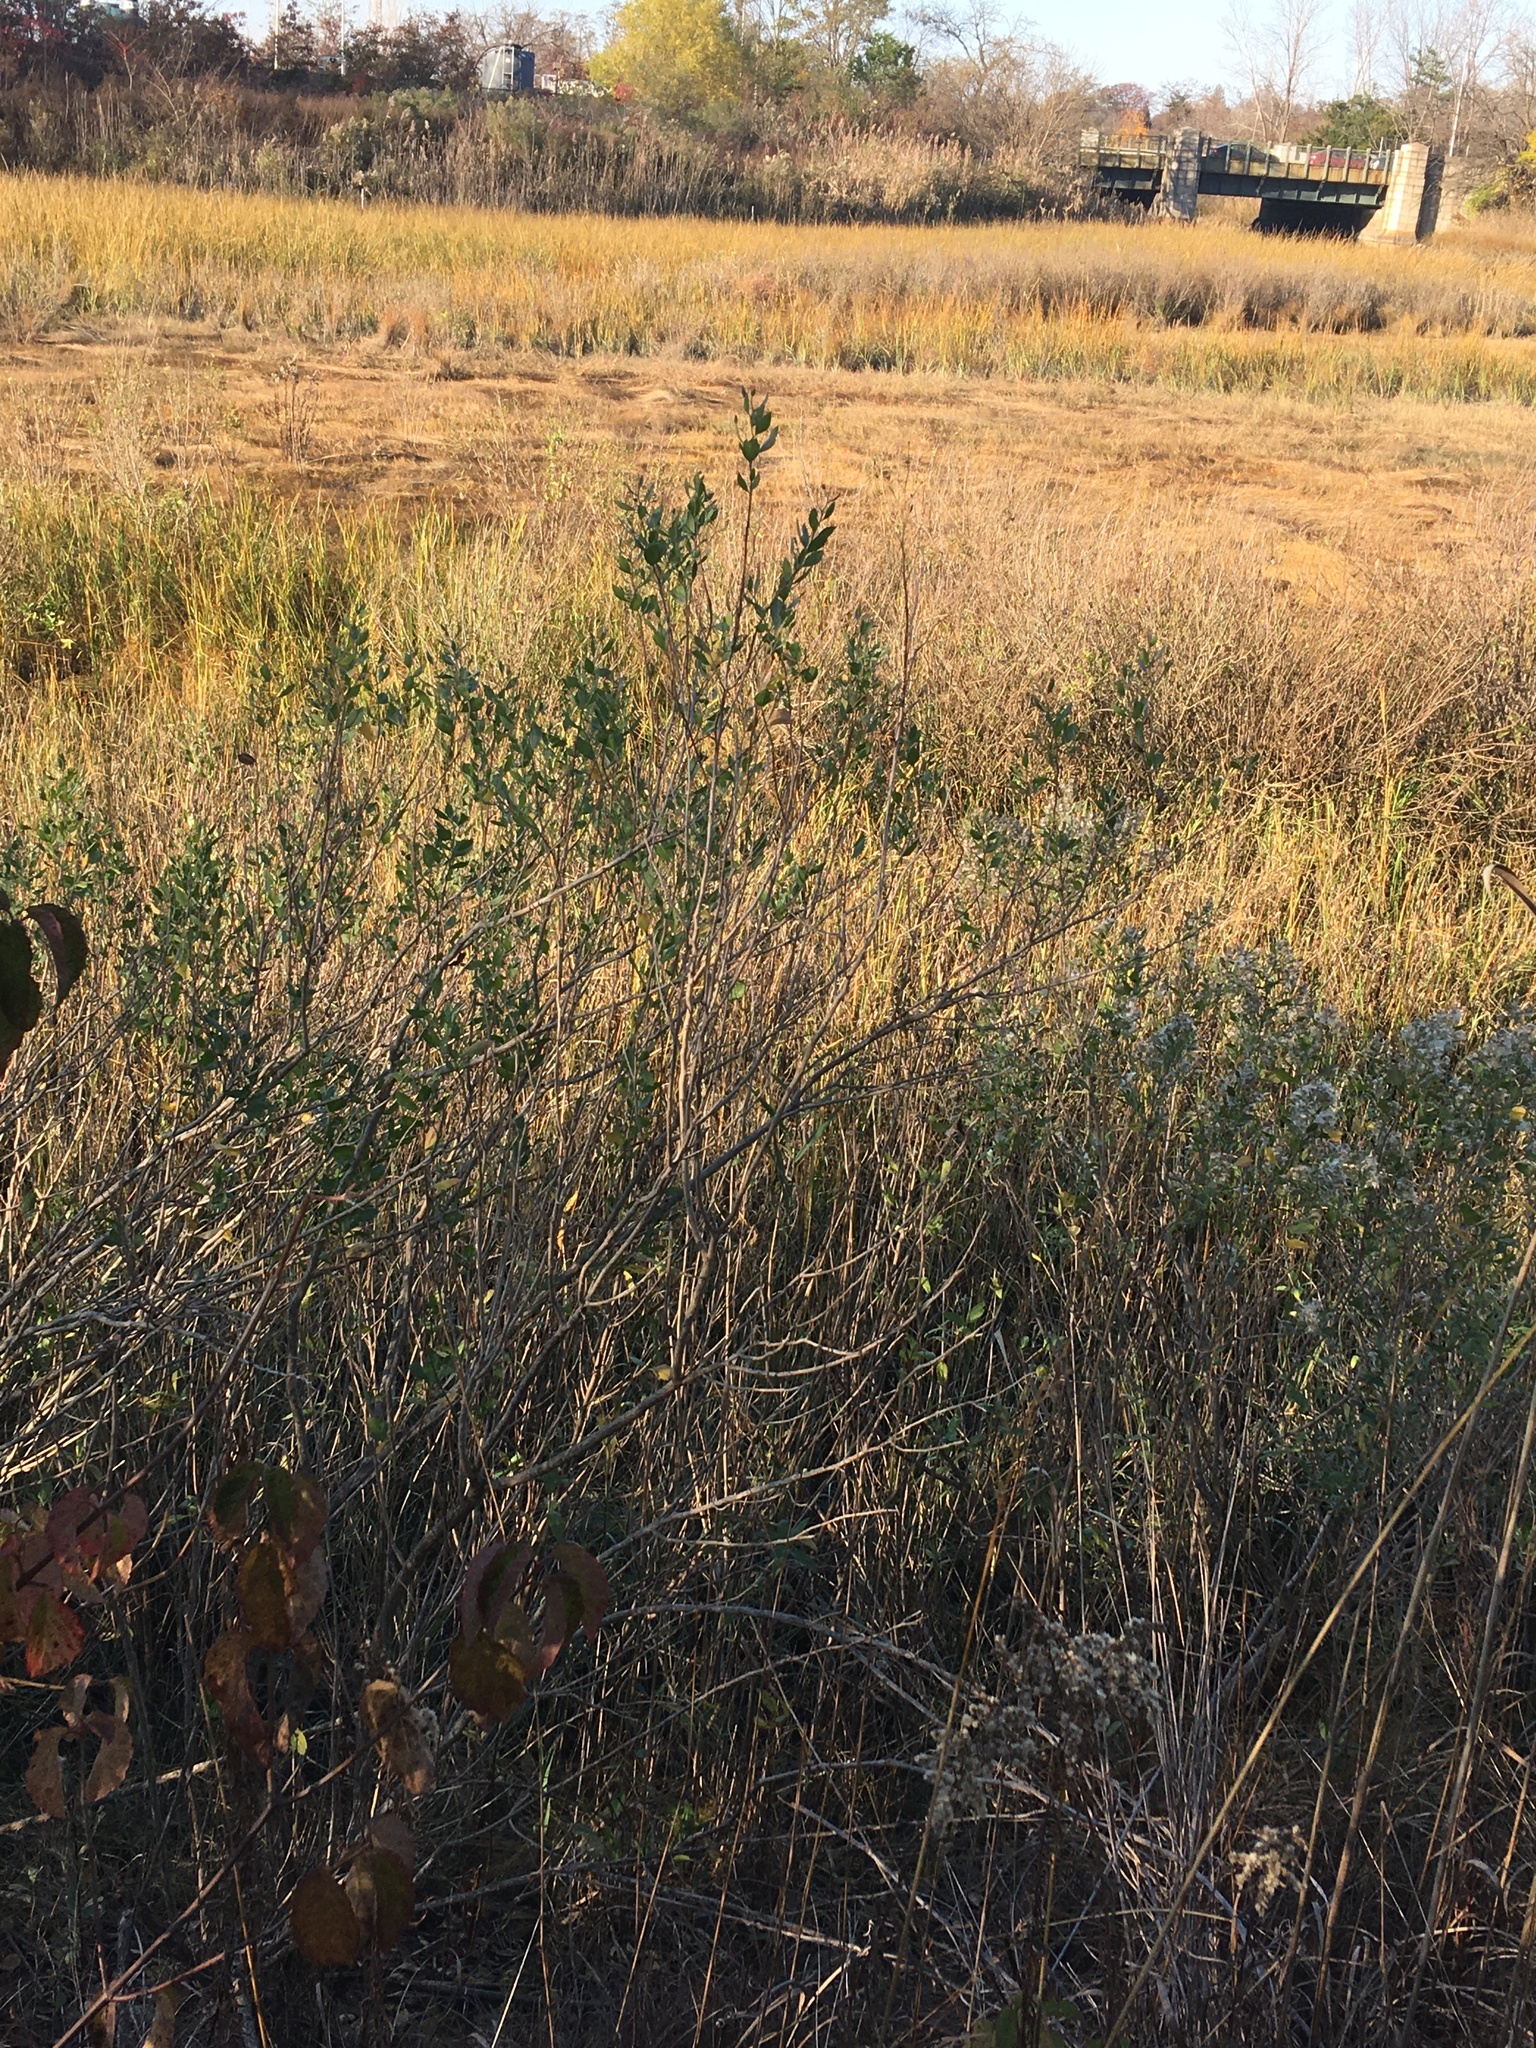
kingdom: Plantae
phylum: Tracheophyta
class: Magnoliopsida
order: Asterales
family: Asteraceae
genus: Baccharis
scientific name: Baccharis halimifolia
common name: Eastern baccharis
